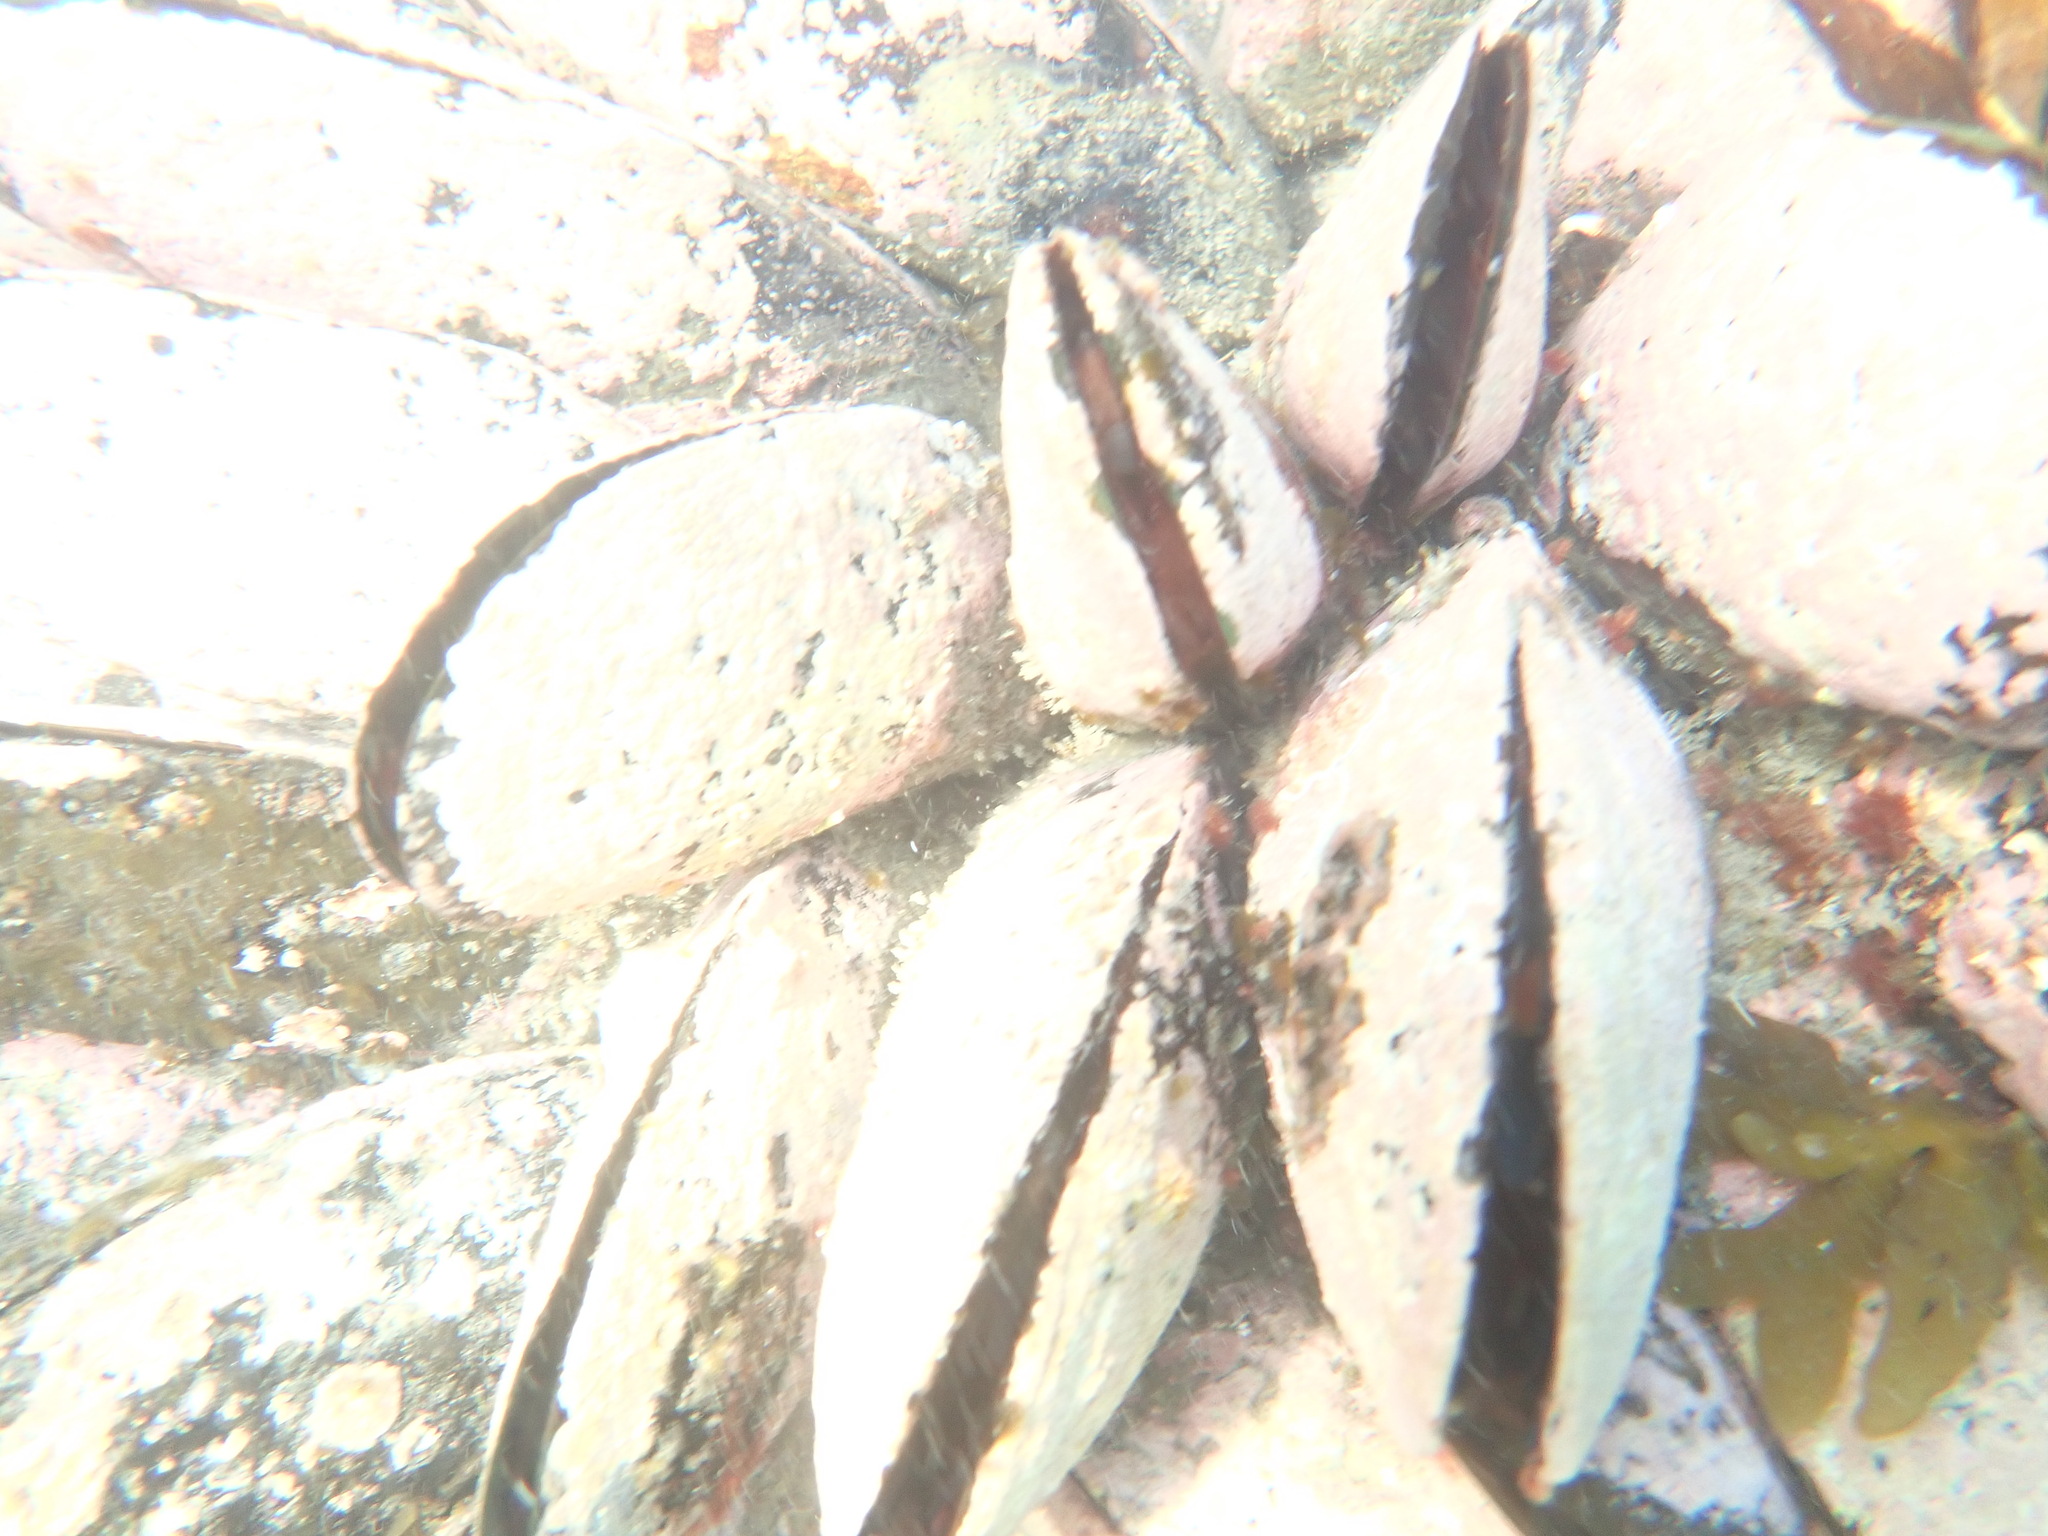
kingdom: Animalia
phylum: Mollusca
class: Bivalvia
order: Mytilida
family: Mytilidae
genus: Perna
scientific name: Perna canaliculus
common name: New zealand greenshelltm
